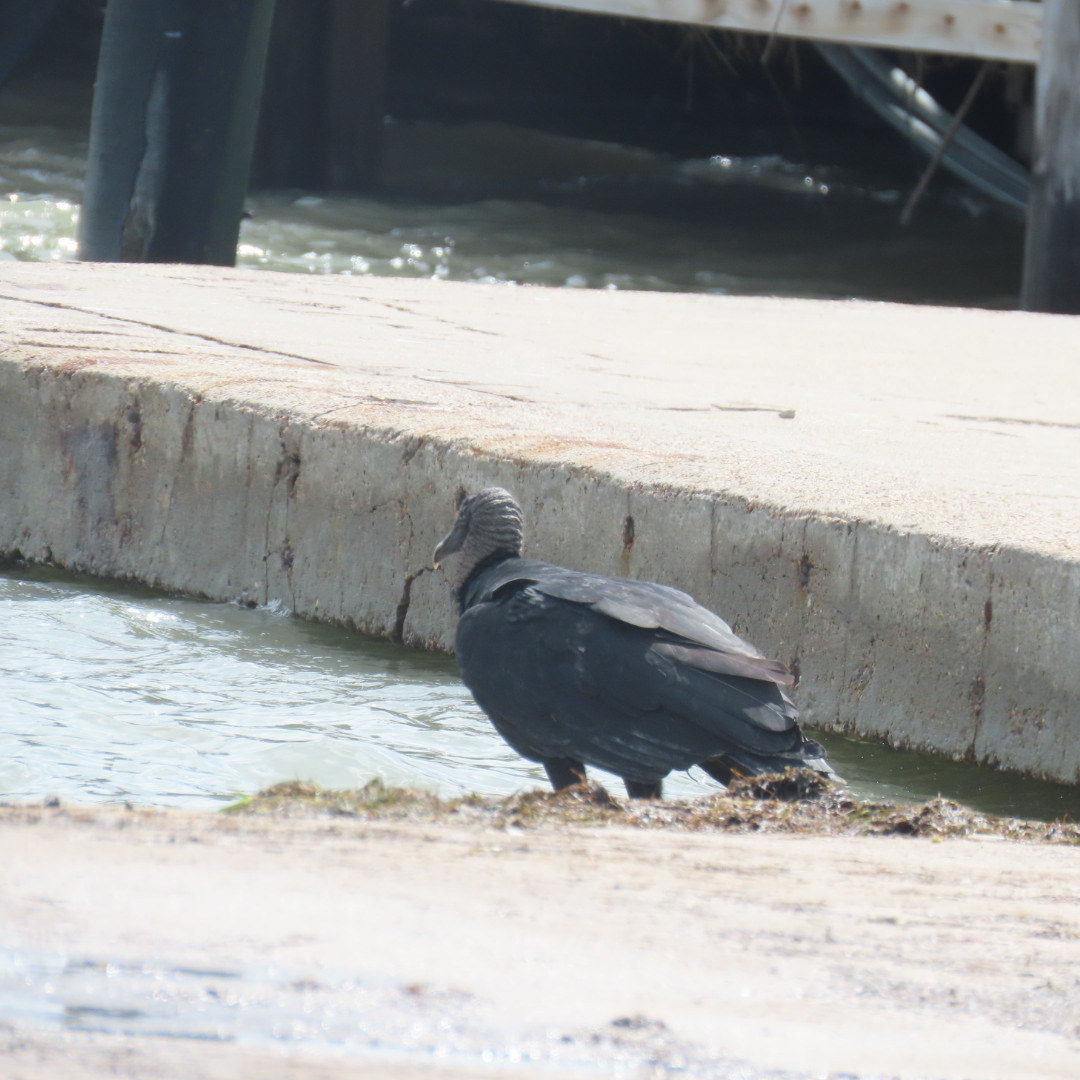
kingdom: Animalia
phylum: Chordata
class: Aves
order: Accipitriformes
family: Cathartidae
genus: Coragyps
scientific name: Coragyps atratus
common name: Black vulture
